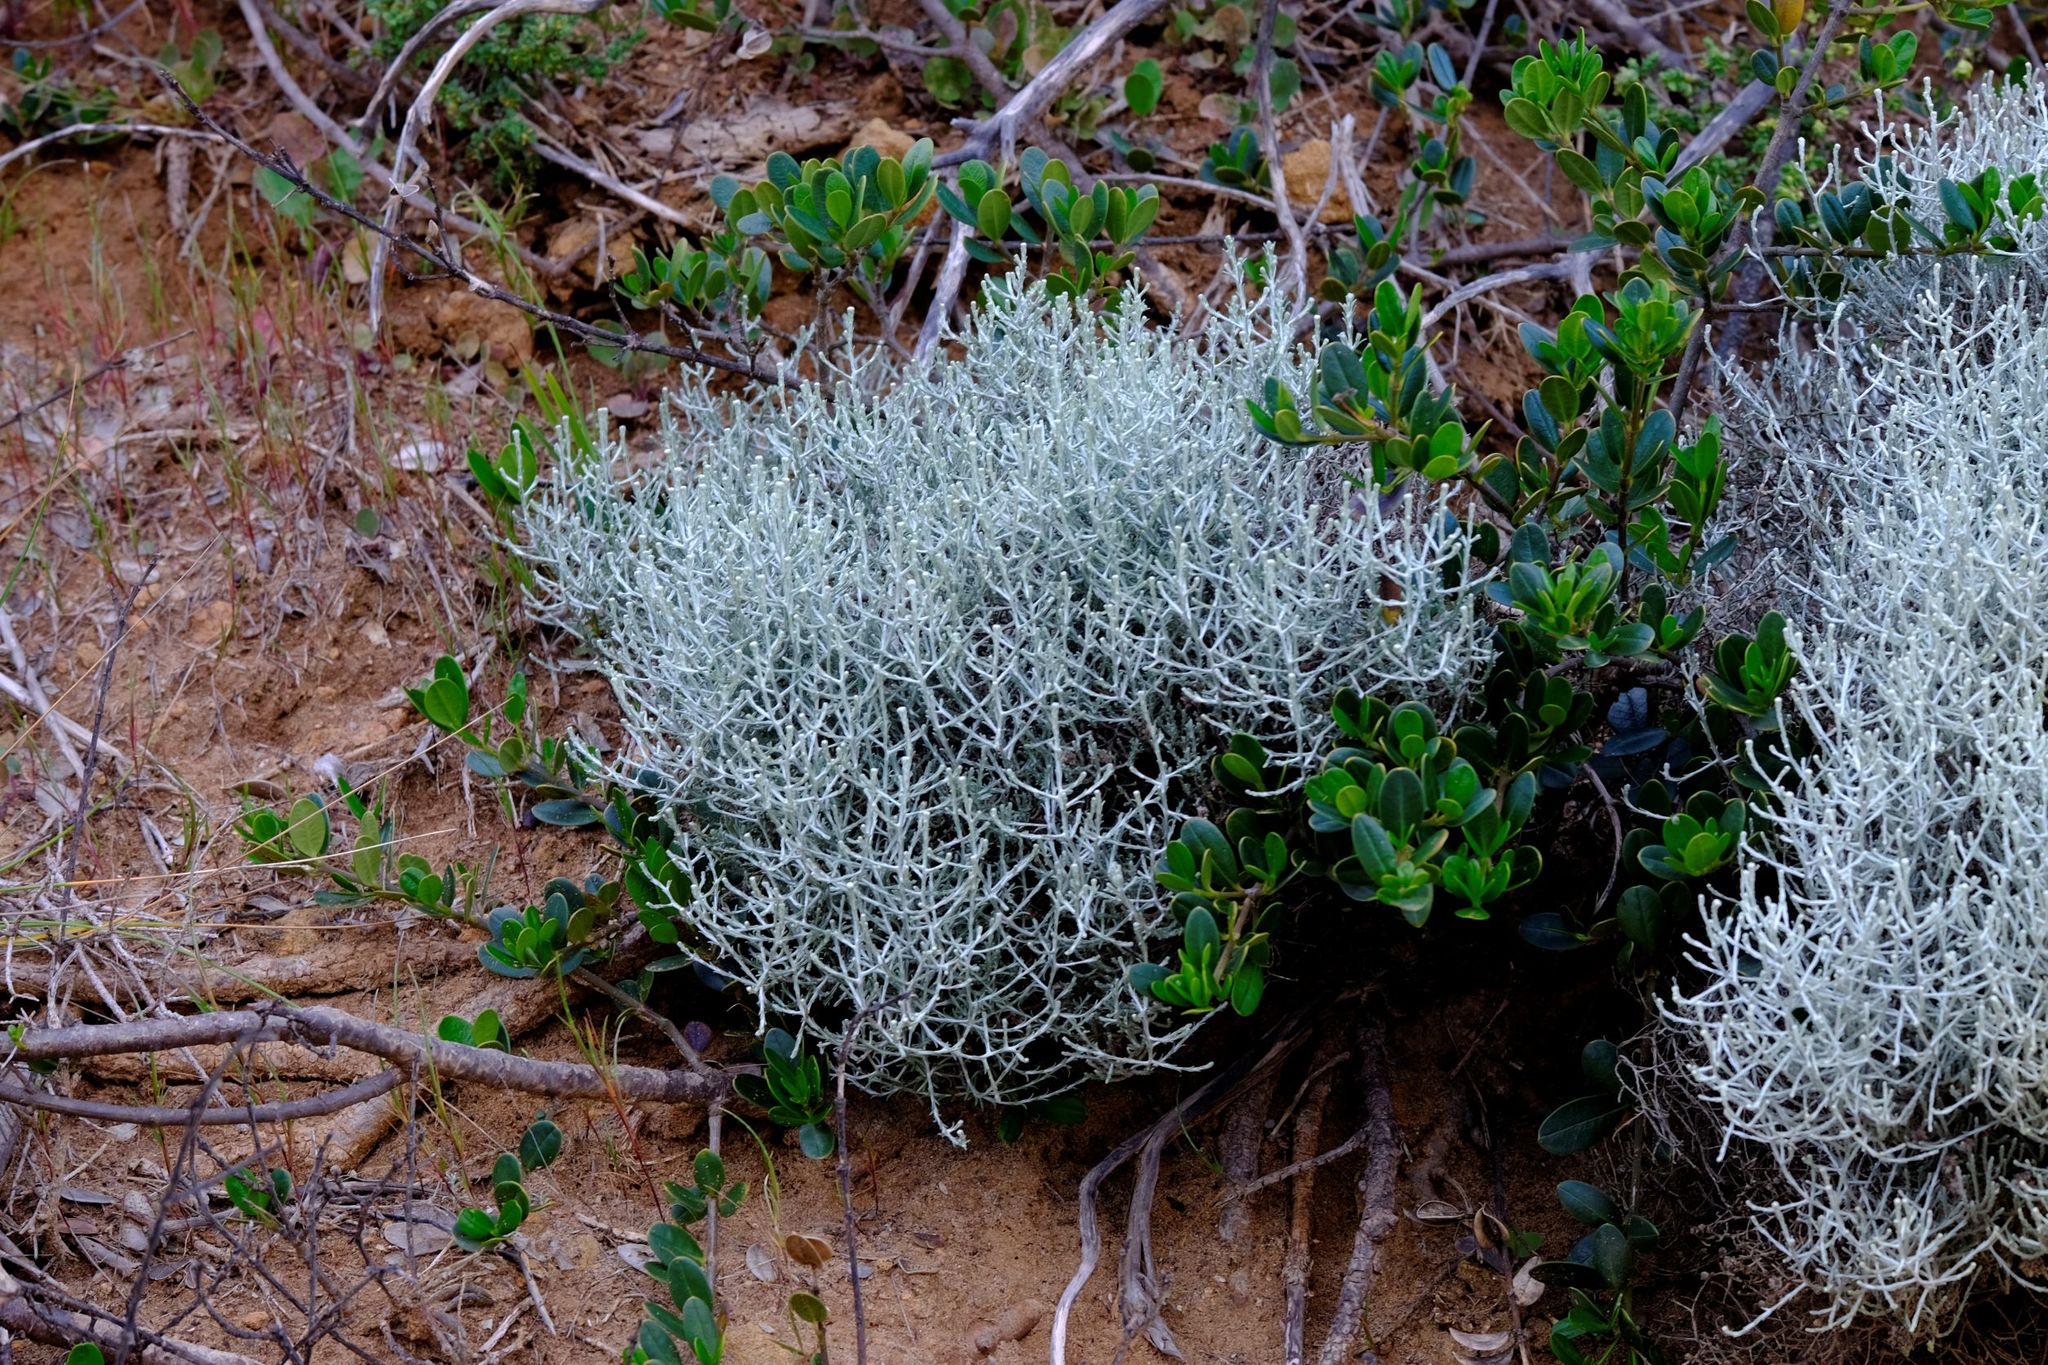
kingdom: Plantae
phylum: Tracheophyta
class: Magnoliopsida
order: Asterales
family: Asteraceae
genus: Calocephalus
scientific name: Calocephalus brownii
